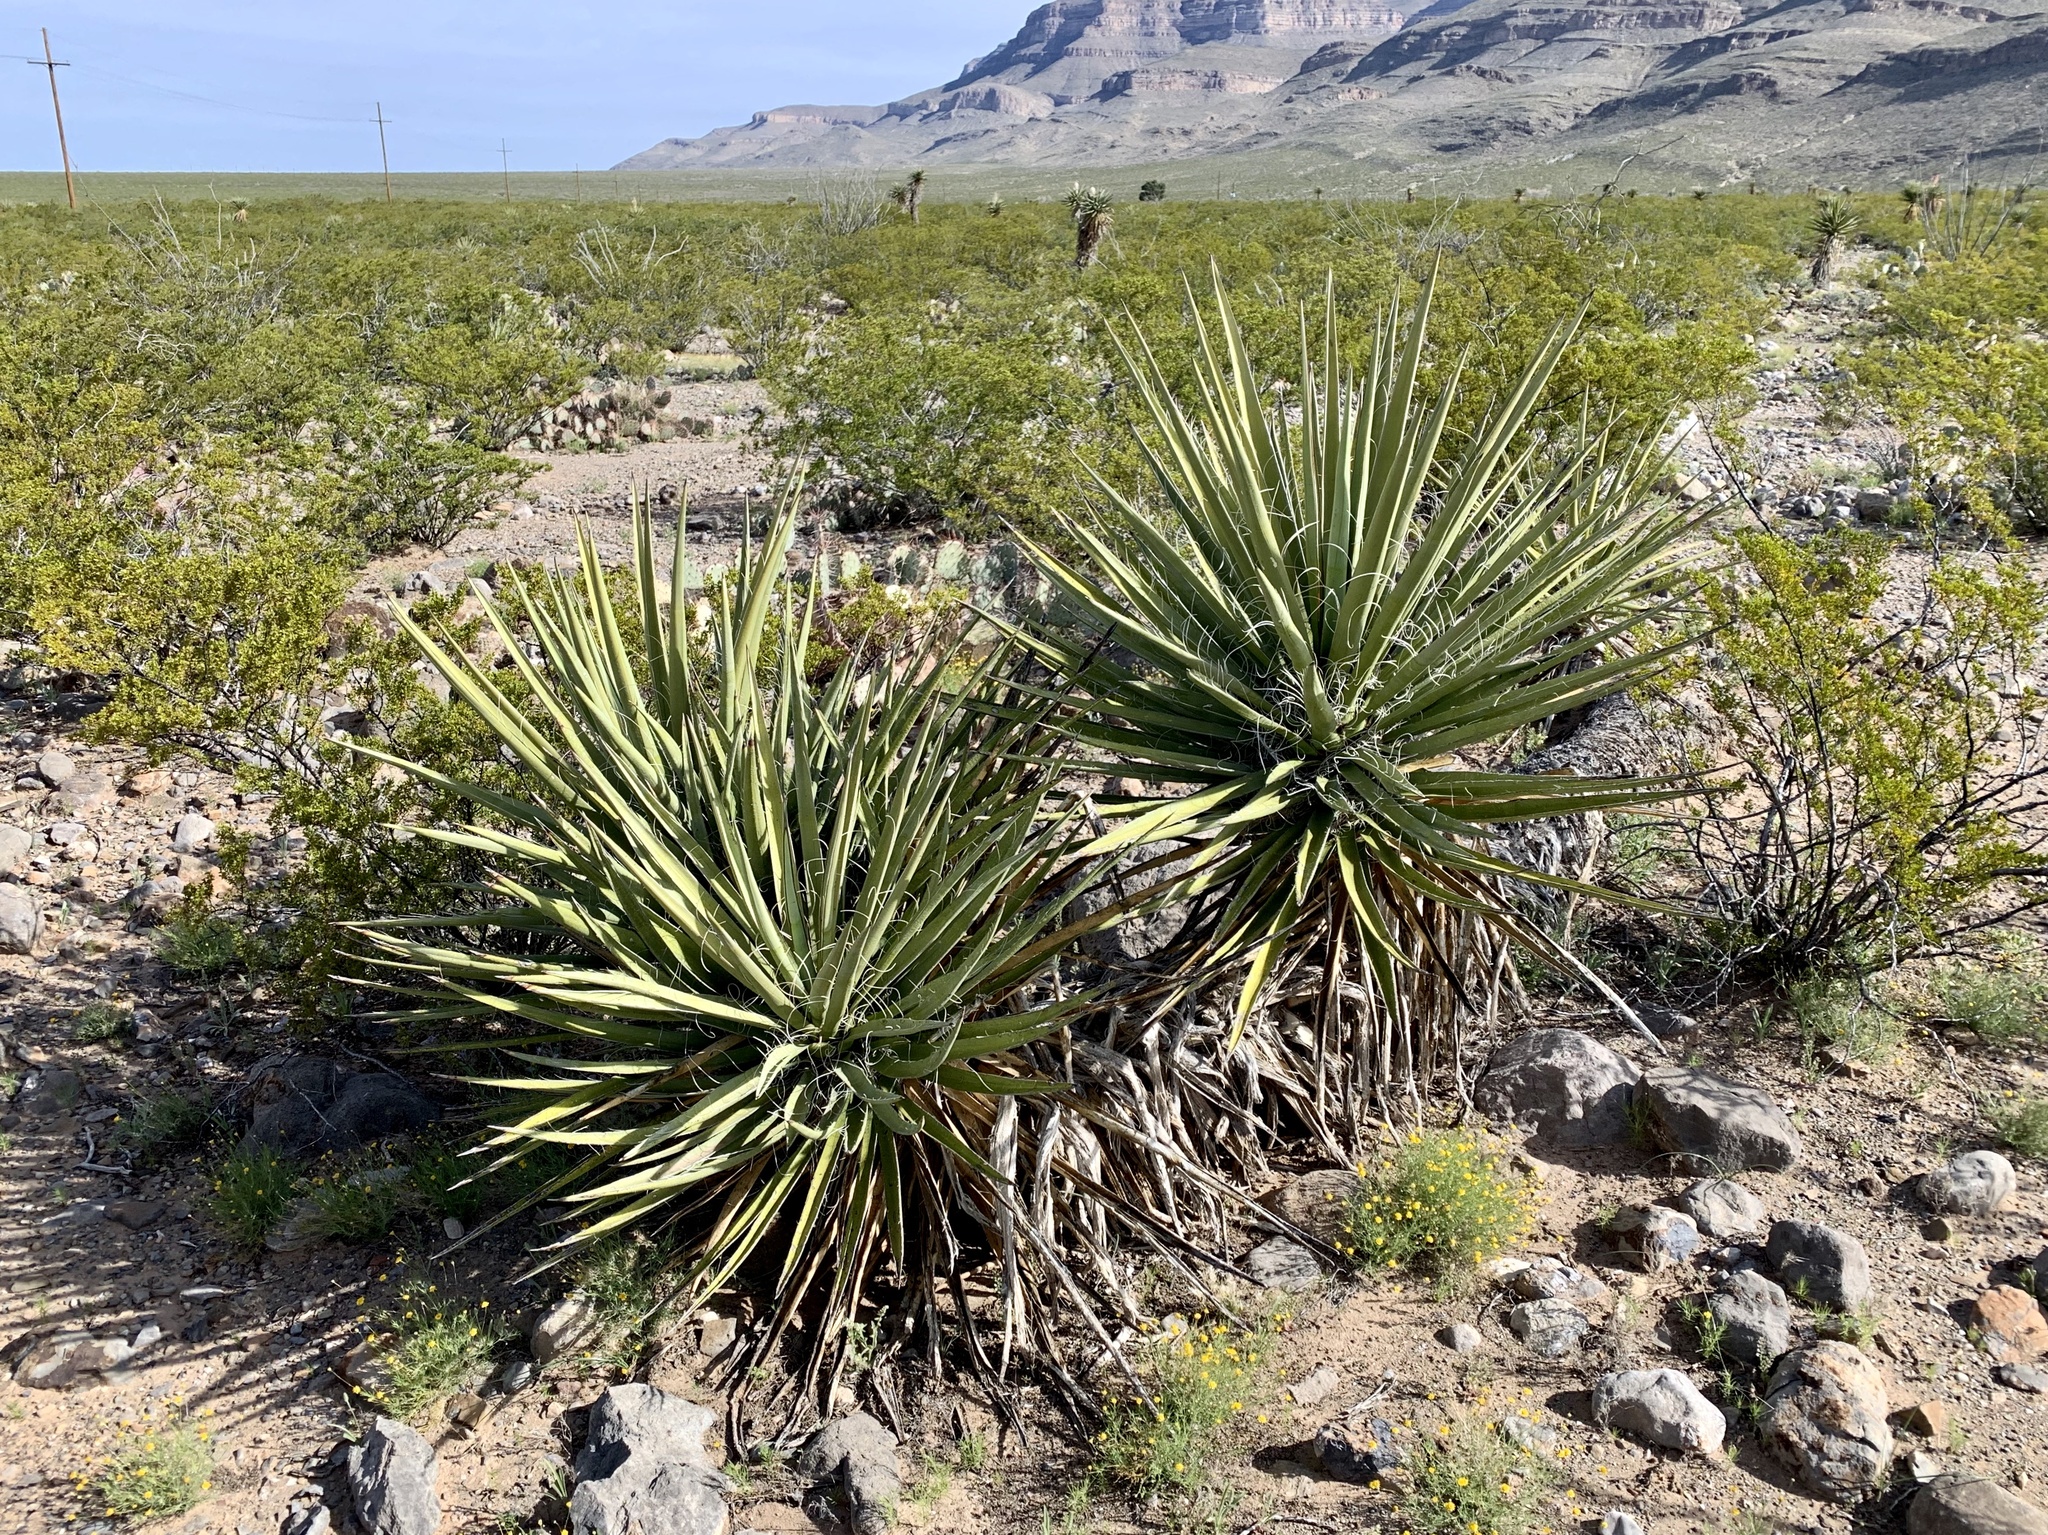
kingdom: Plantae
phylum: Tracheophyta
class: Liliopsida
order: Asparagales
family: Asparagaceae
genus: Yucca
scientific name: Yucca treculiana
